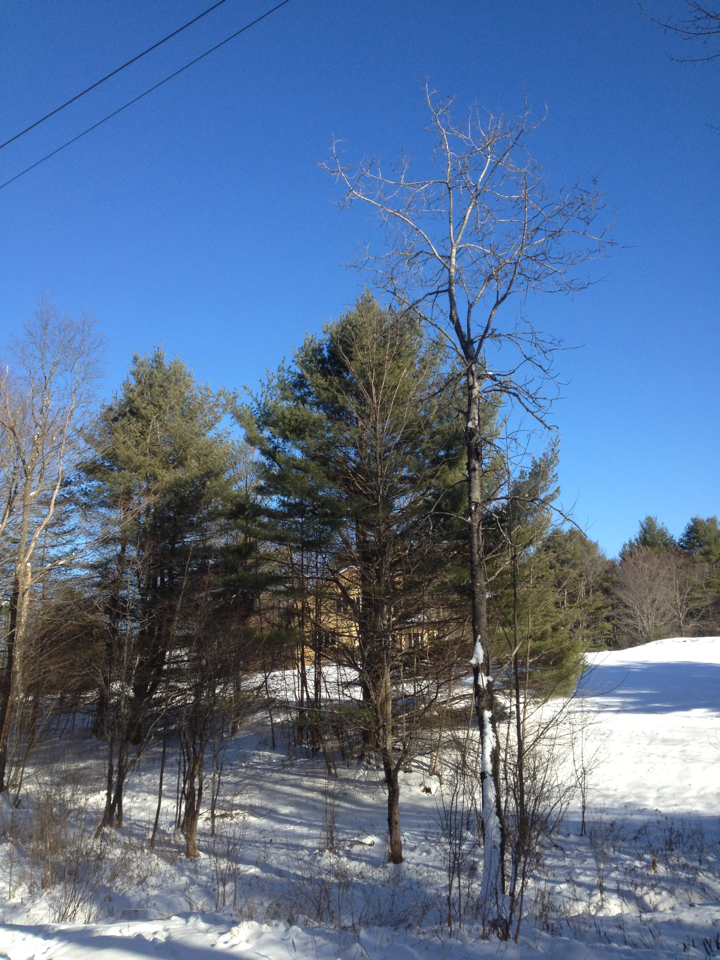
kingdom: Plantae
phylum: Tracheophyta
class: Pinopsida
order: Pinales
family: Pinaceae
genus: Pinus
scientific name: Pinus strobus
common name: Weymouth pine
